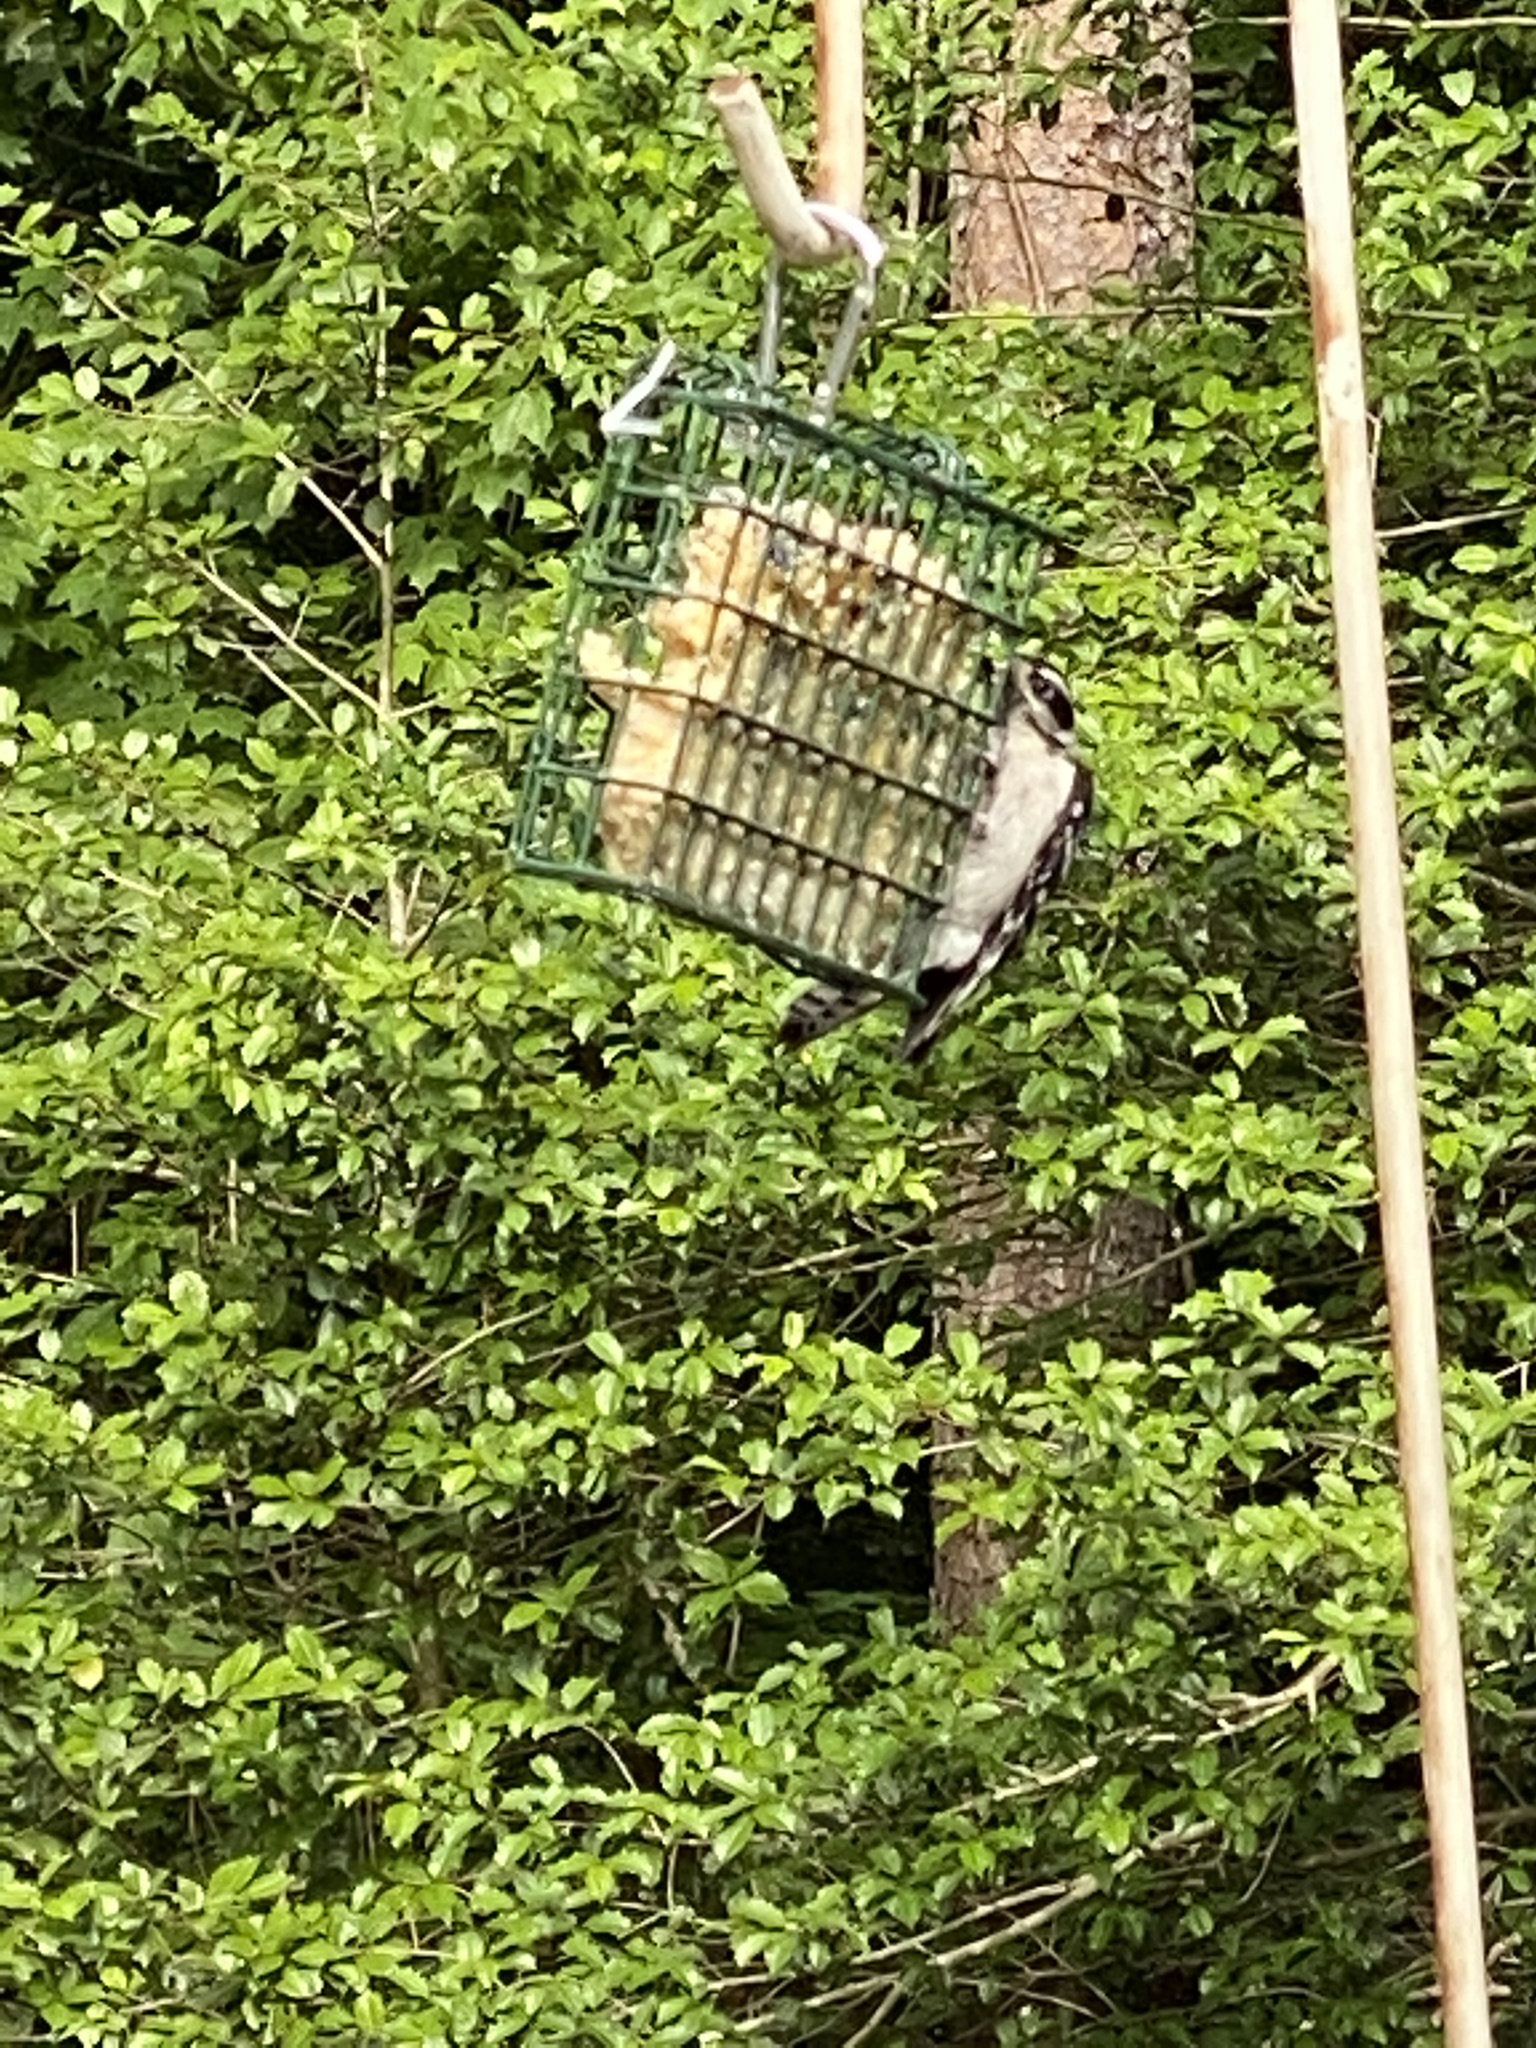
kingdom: Animalia
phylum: Chordata
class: Aves
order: Piciformes
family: Picidae
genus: Dryobates
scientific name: Dryobates pubescens
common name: Downy woodpecker
